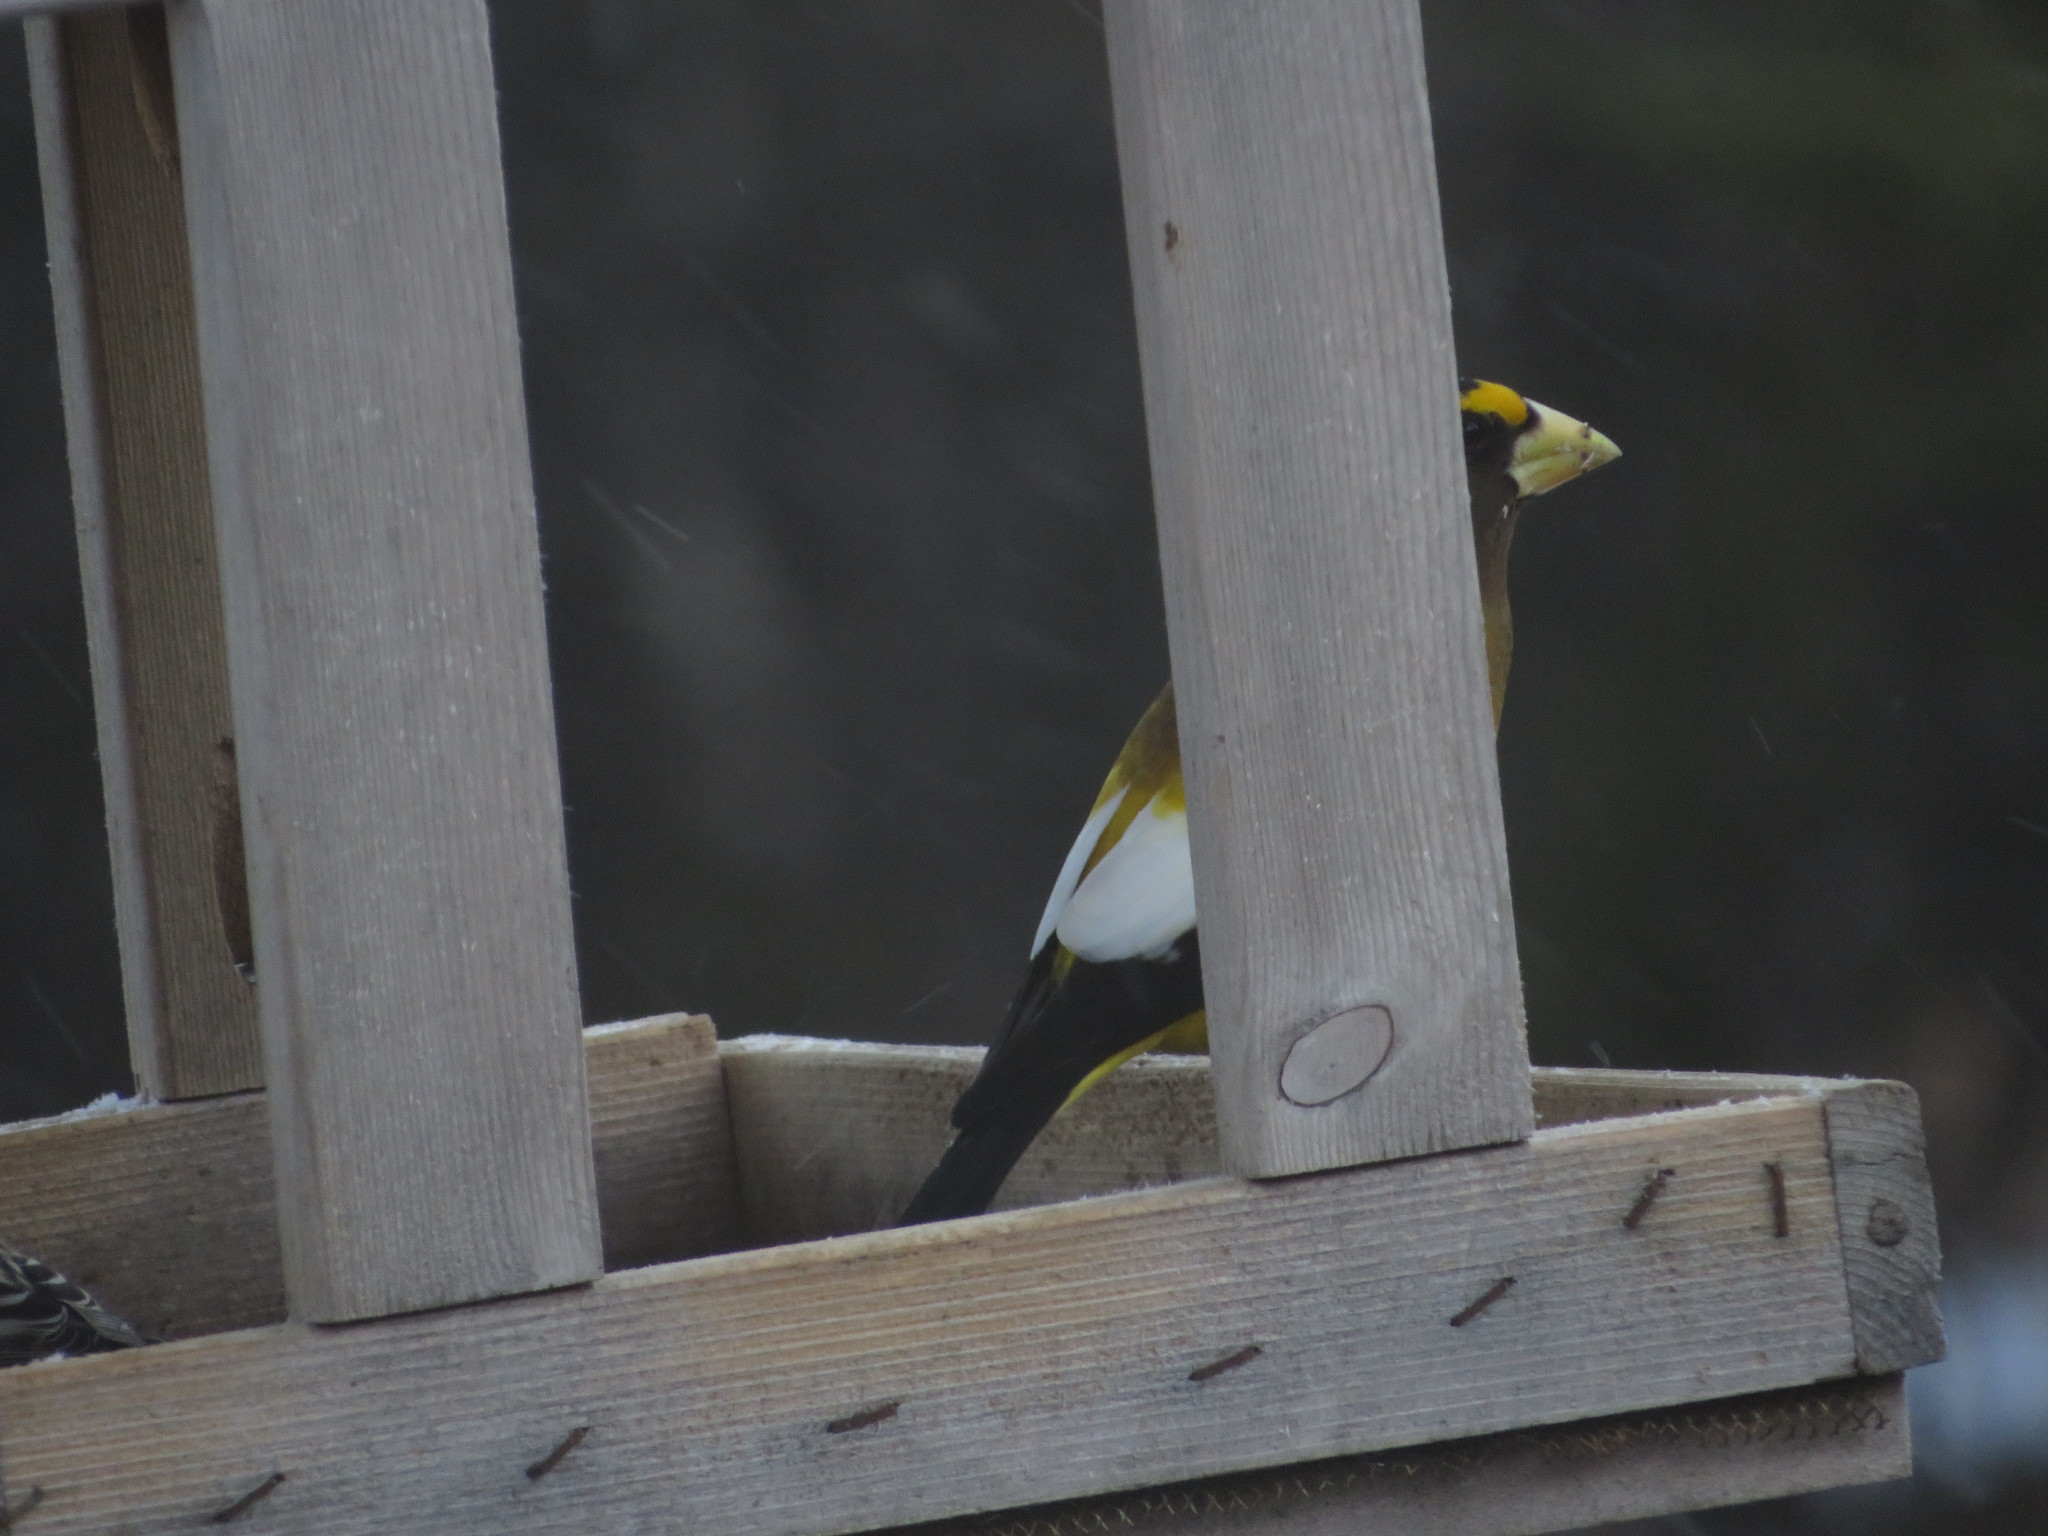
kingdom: Animalia
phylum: Chordata
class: Aves
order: Passeriformes
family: Fringillidae
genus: Hesperiphona
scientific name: Hesperiphona vespertina
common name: Evening grosbeak
